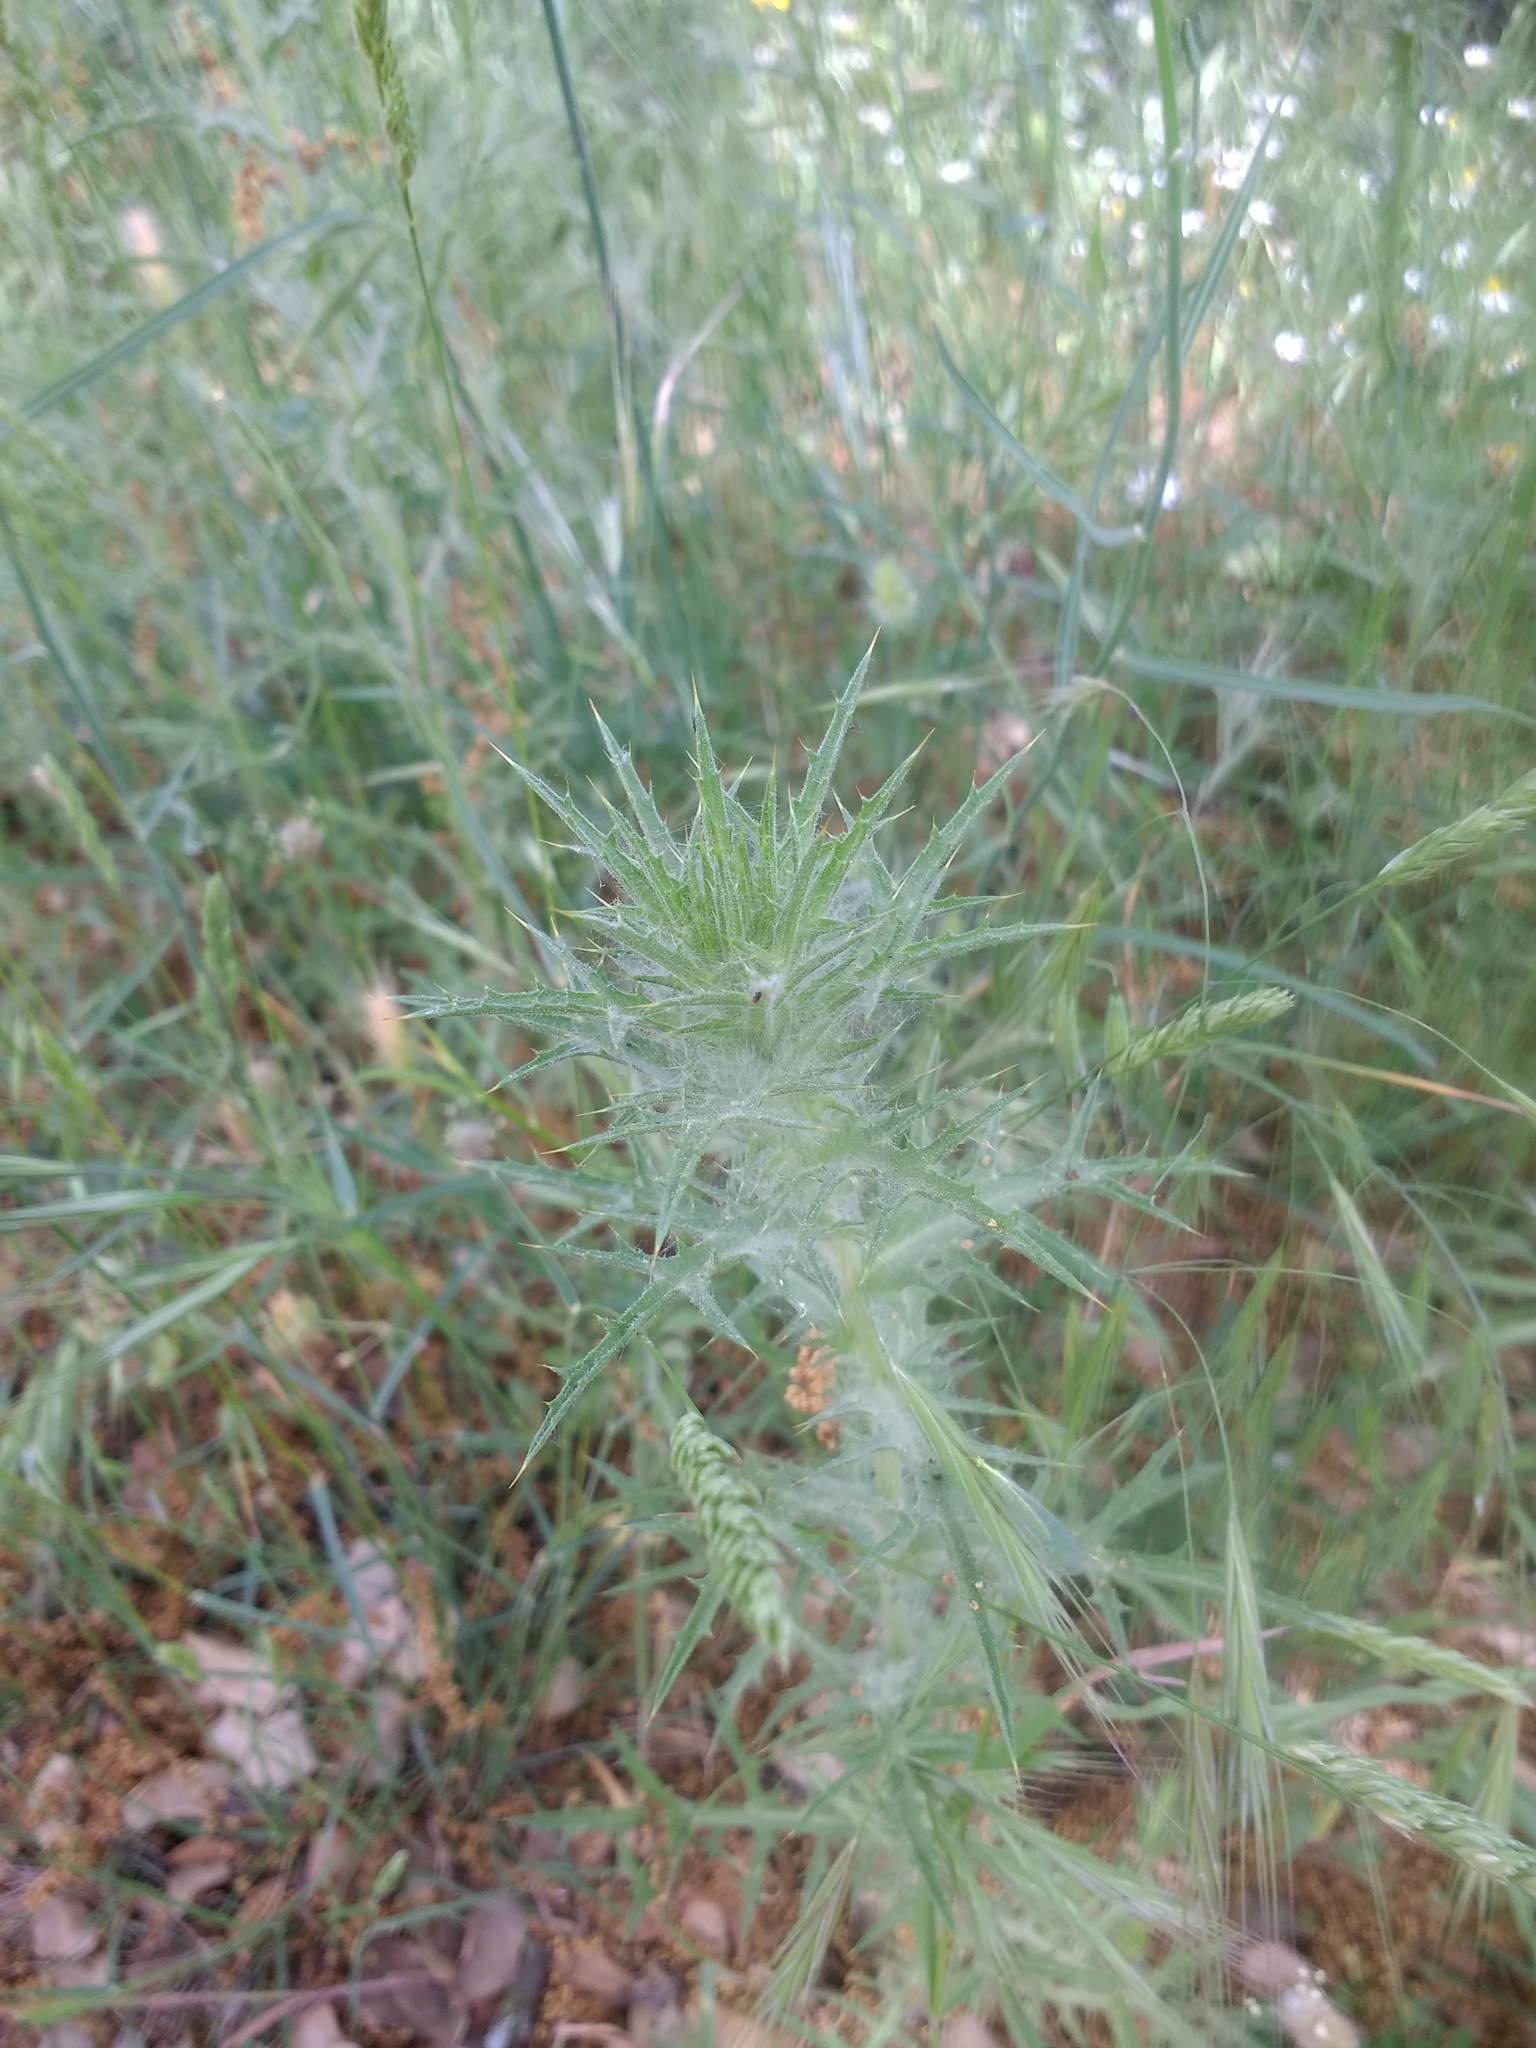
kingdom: Plantae
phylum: Tracheophyta
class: Magnoliopsida
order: Asterales
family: Asteraceae
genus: Carthamus
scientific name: Carthamus lanatus
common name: Downy safflower
